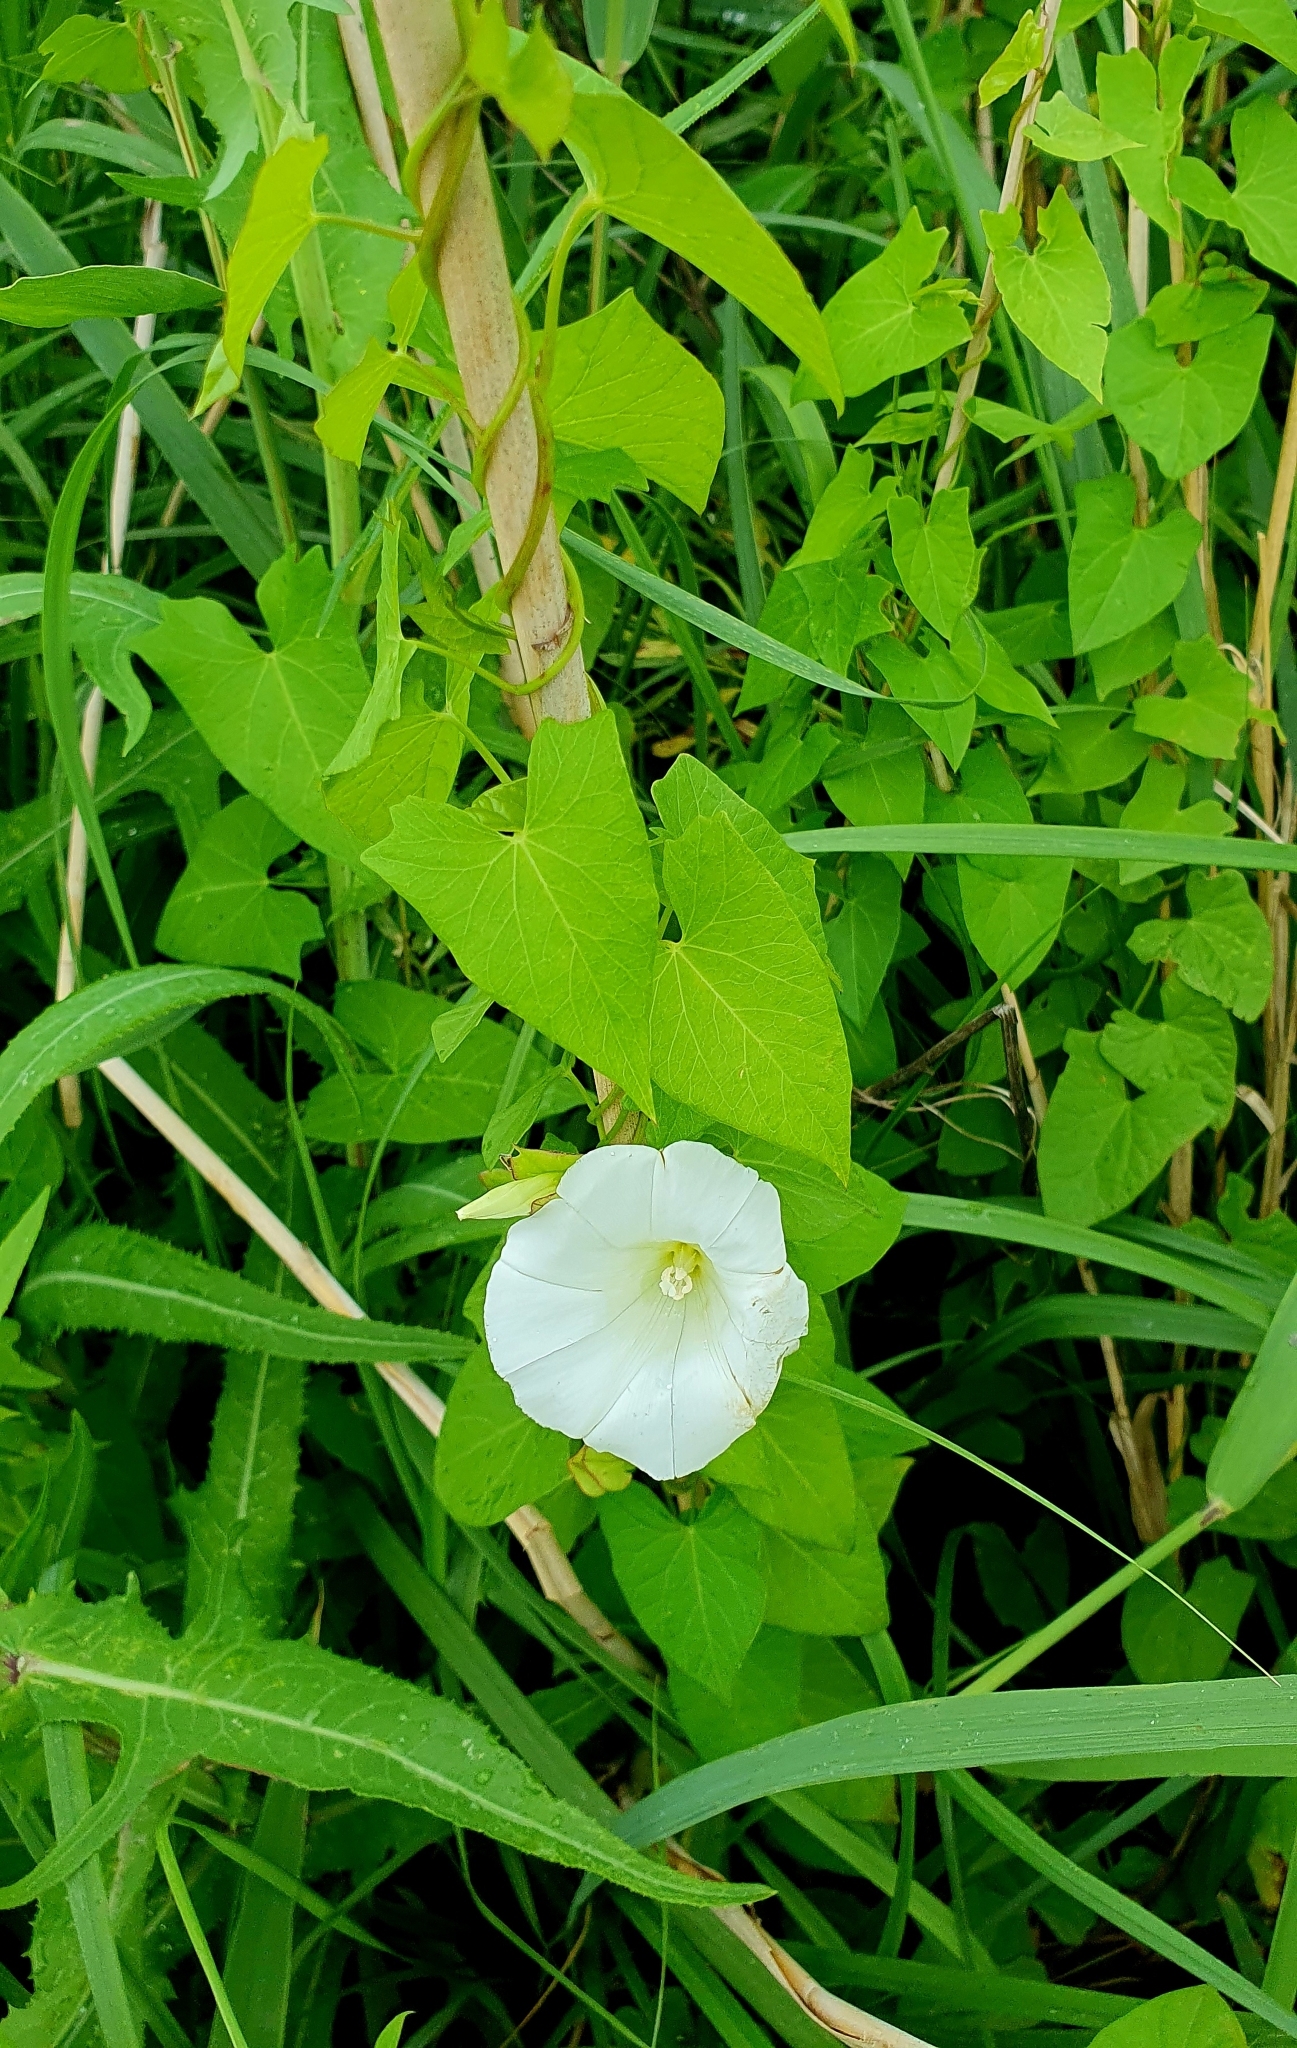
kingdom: Plantae
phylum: Tracheophyta
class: Magnoliopsida
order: Solanales
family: Convolvulaceae
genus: Calystegia
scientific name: Calystegia sepium
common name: Hedge bindweed
